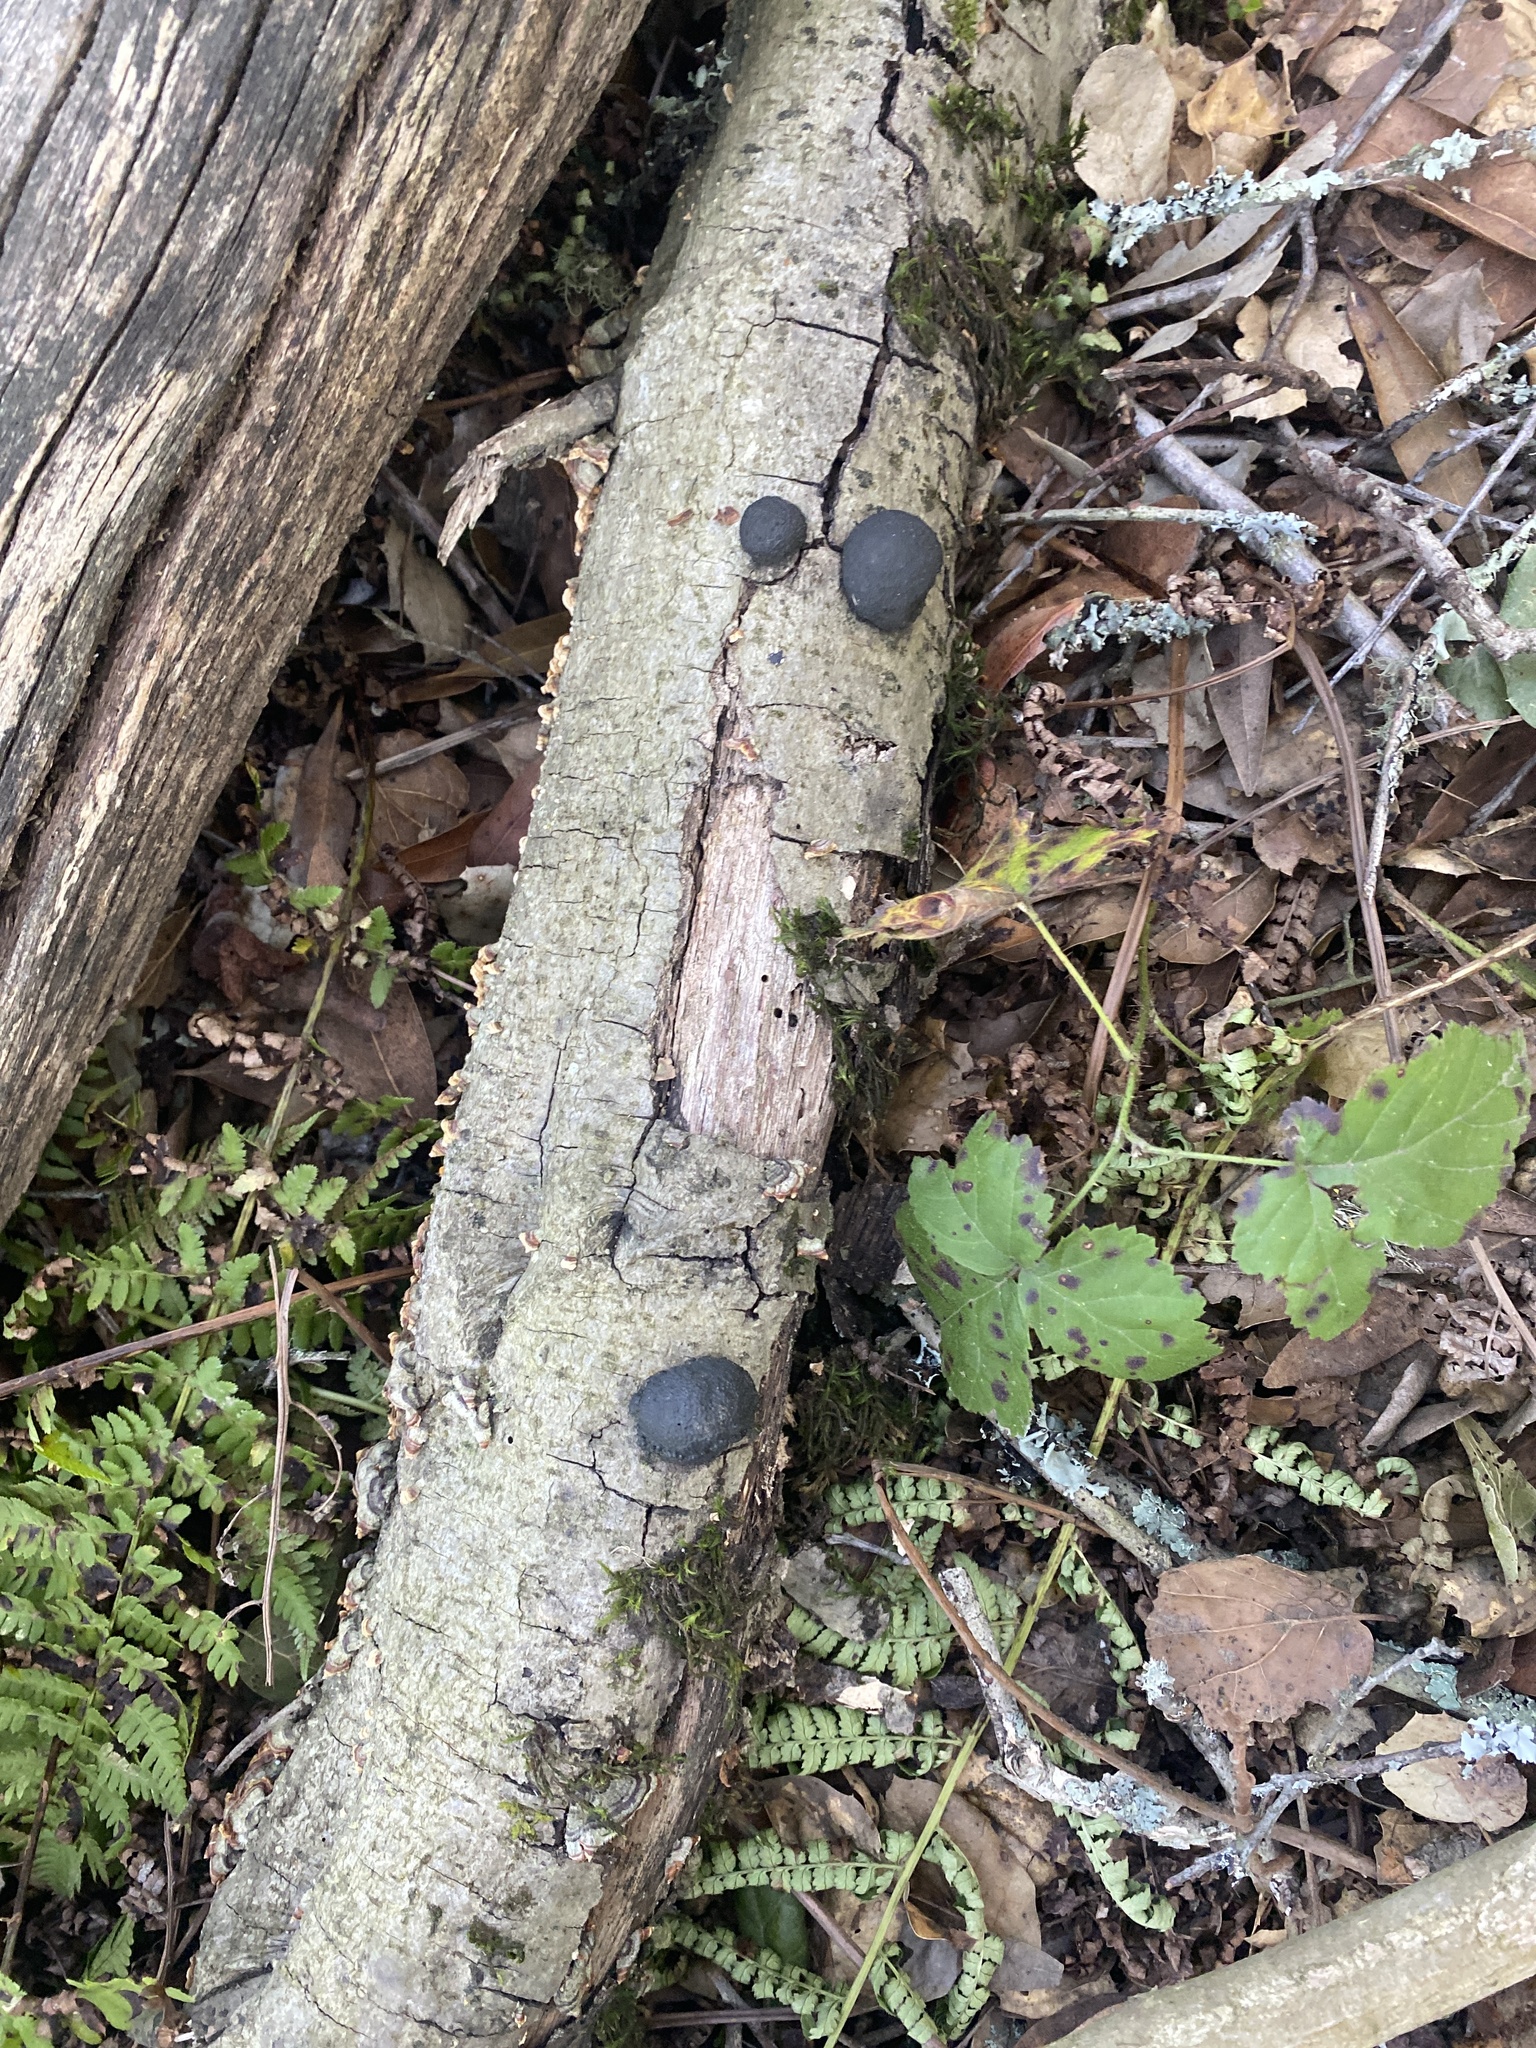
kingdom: Fungi
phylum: Ascomycota
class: Sordariomycetes
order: Xylariales
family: Hypoxylaceae
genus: Annulohypoxylon
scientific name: Annulohypoxylon thouarsianum
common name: Cramp balls
